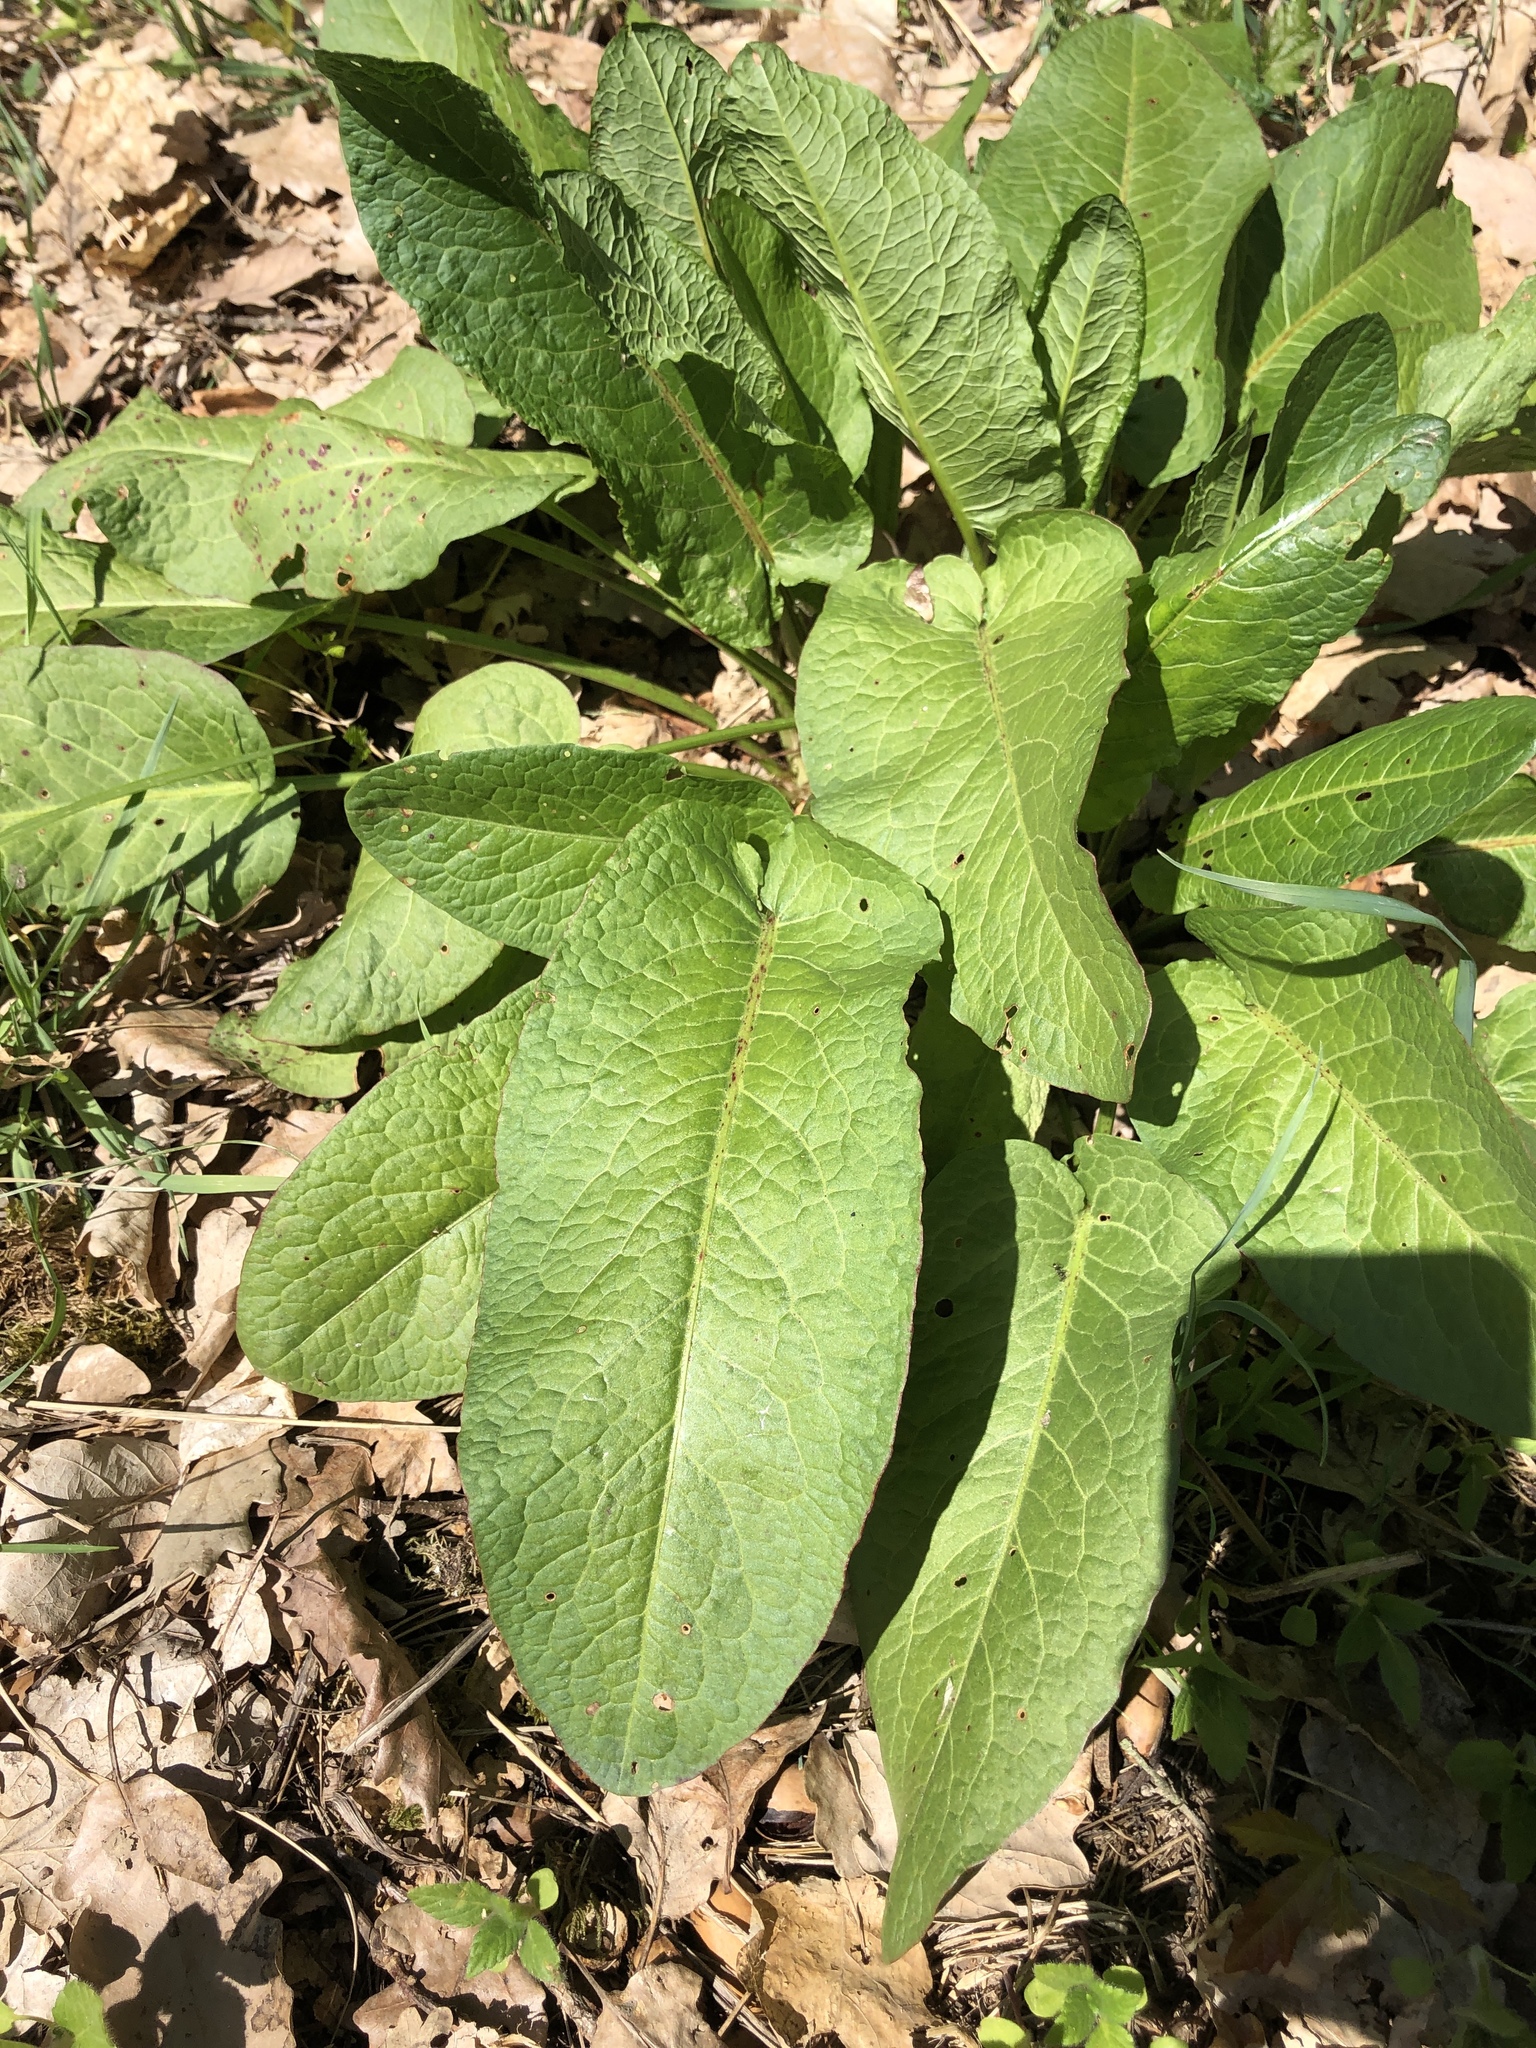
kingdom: Plantae
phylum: Tracheophyta
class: Magnoliopsida
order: Caryophyllales
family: Polygonaceae
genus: Rumex
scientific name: Rumex obtusifolius
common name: Bitter dock
